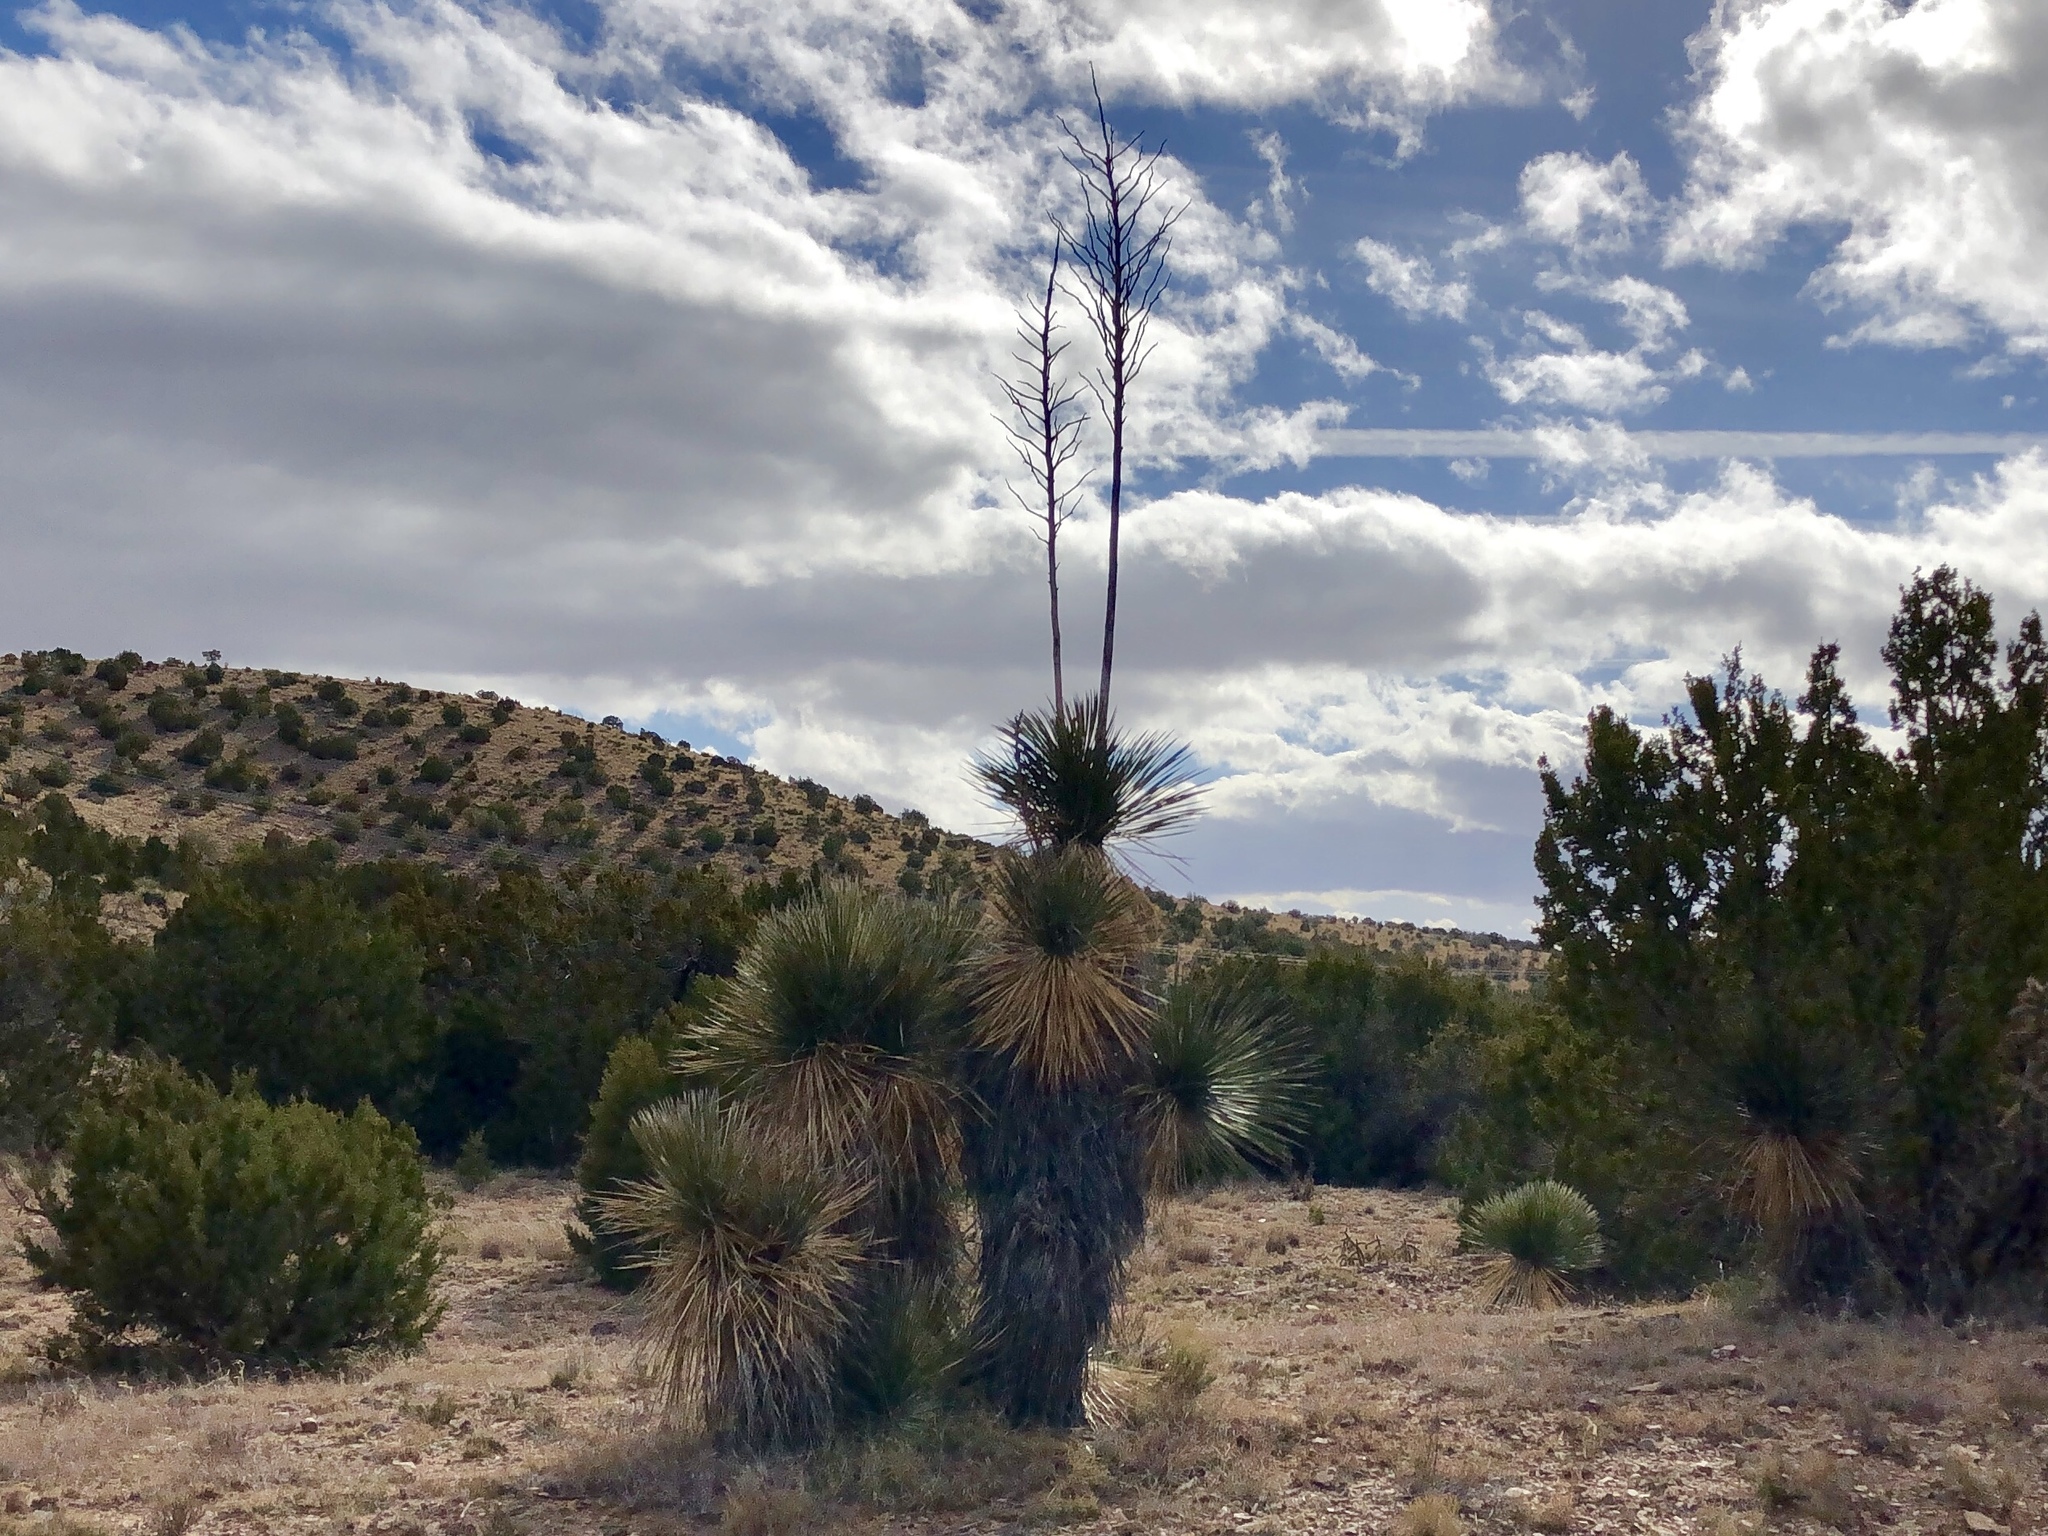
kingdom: Plantae
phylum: Tracheophyta
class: Liliopsida
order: Asparagales
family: Asparagaceae
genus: Yucca
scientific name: Yucca elata
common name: Palmella
